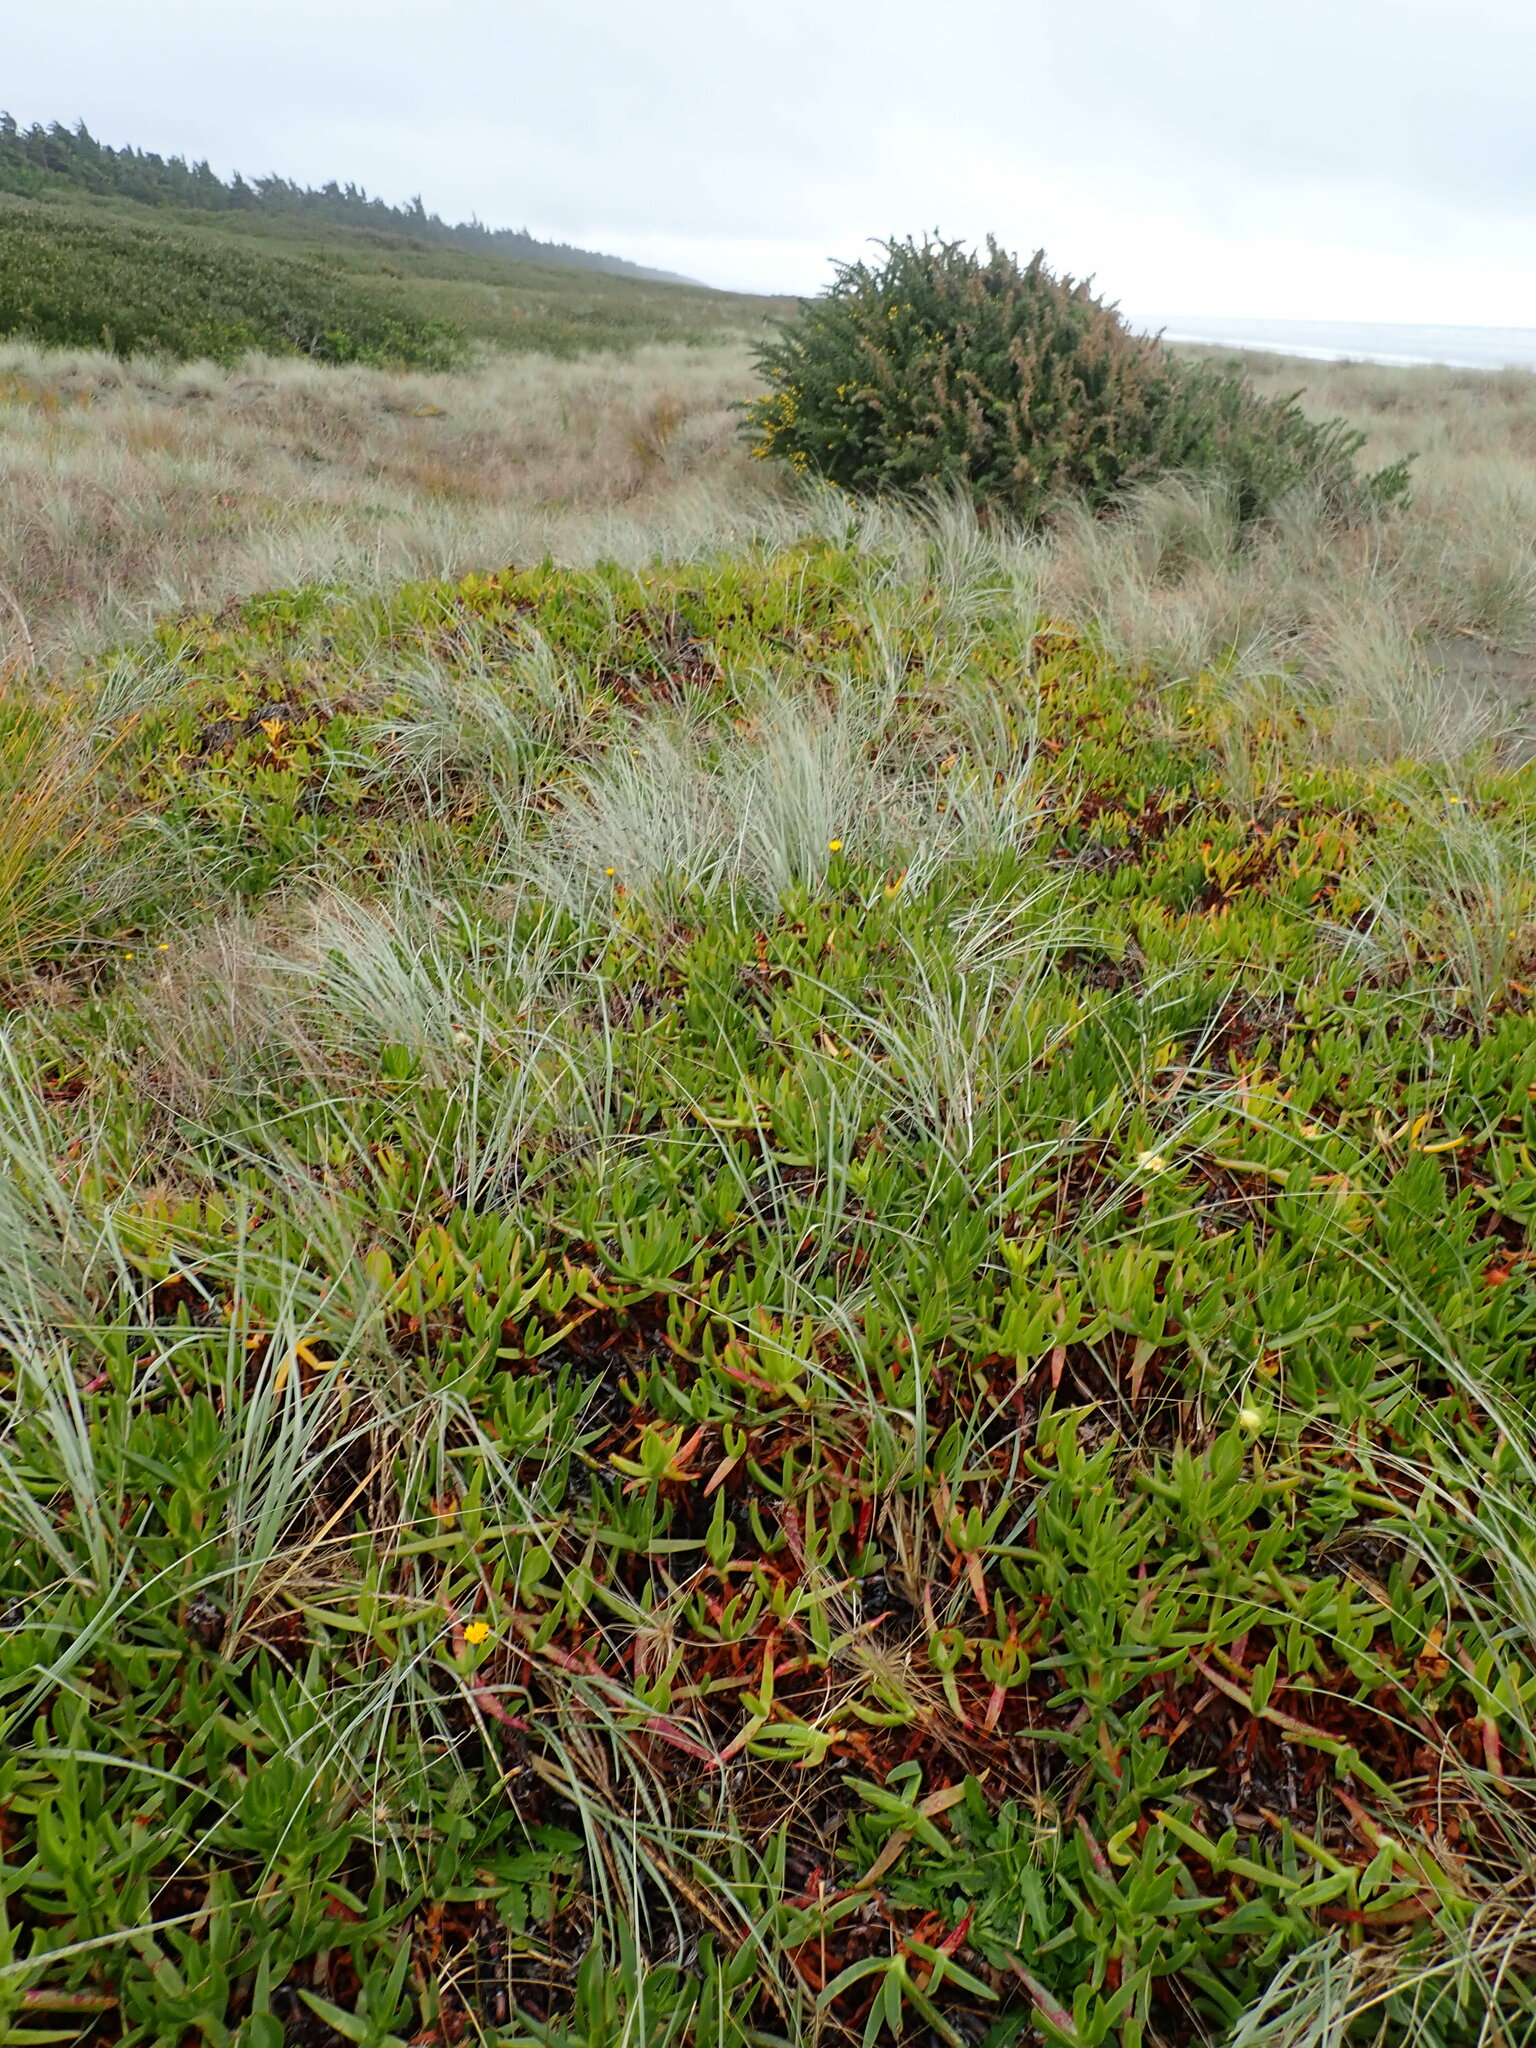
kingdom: Plantae
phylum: Tracheophyta
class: Magnoliopsida
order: Caryophyllales
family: Aizoaceae
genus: Carpobrotus
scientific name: Carpobrotus edulis
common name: Hottentot-fig
